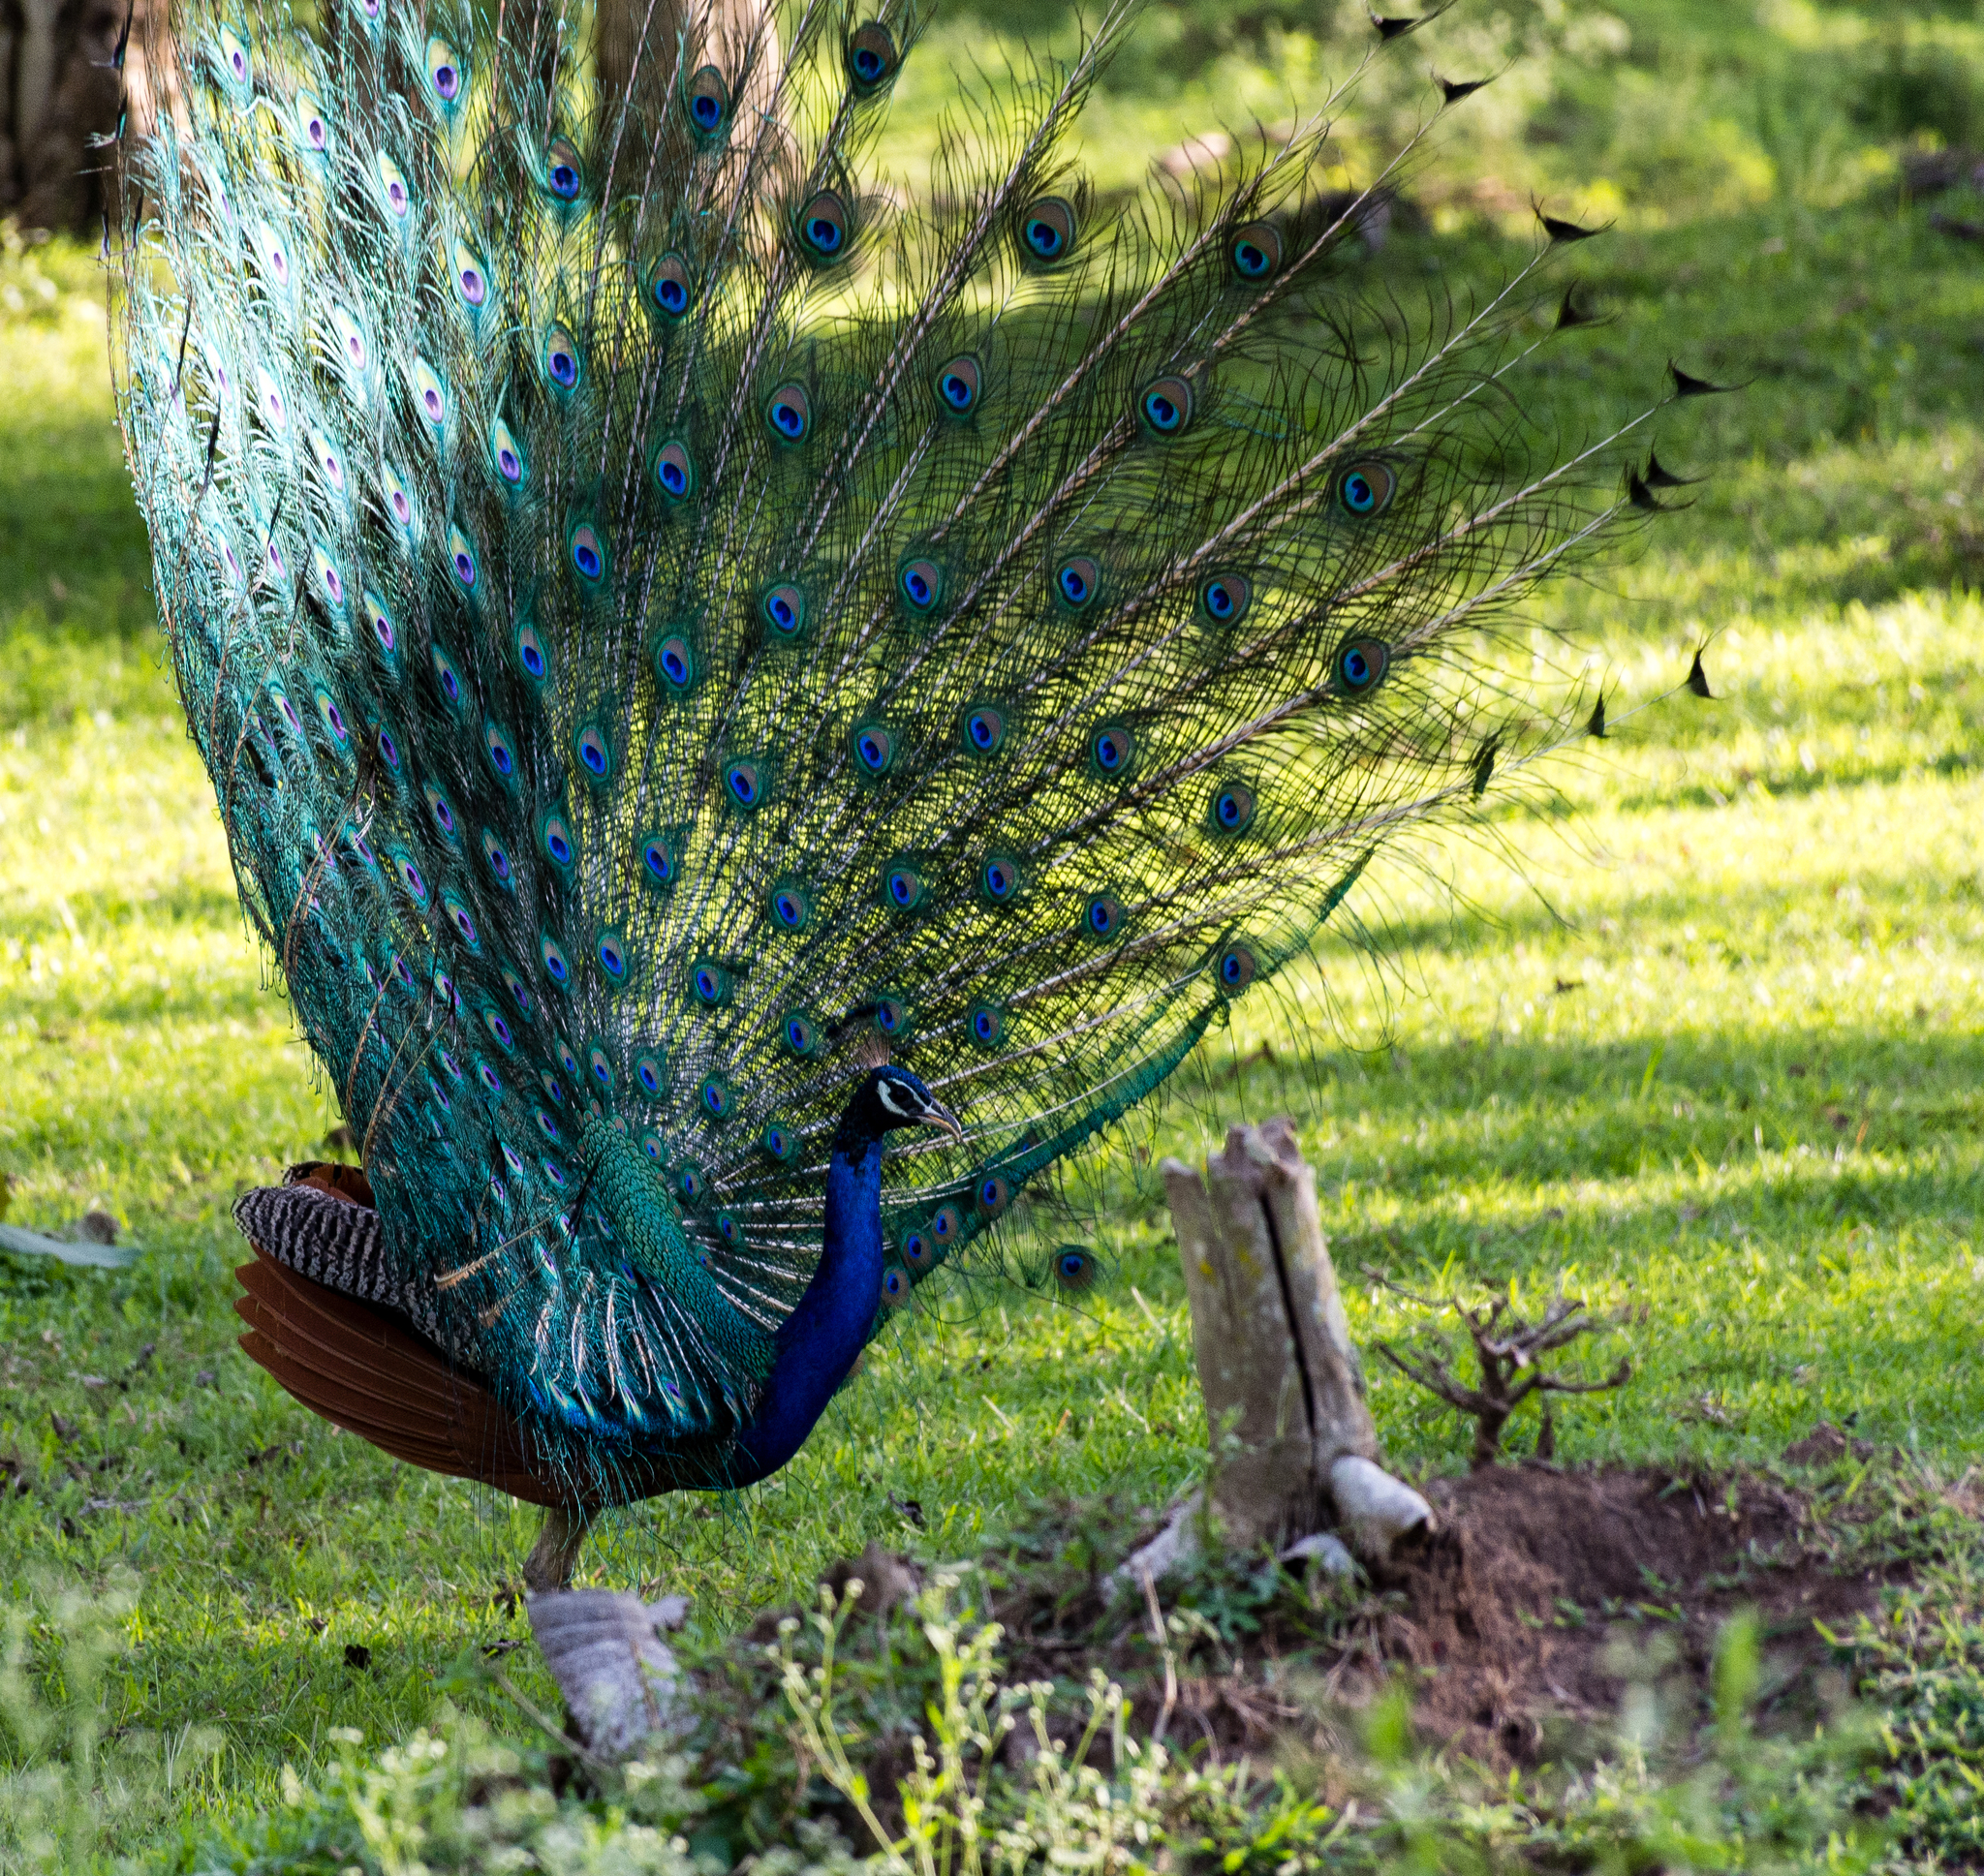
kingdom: Animalia
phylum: Chordata
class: Aves
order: Galliformes
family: Phasianidae
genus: Pavo
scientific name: Pavo cristatus
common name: Indian peafowl
